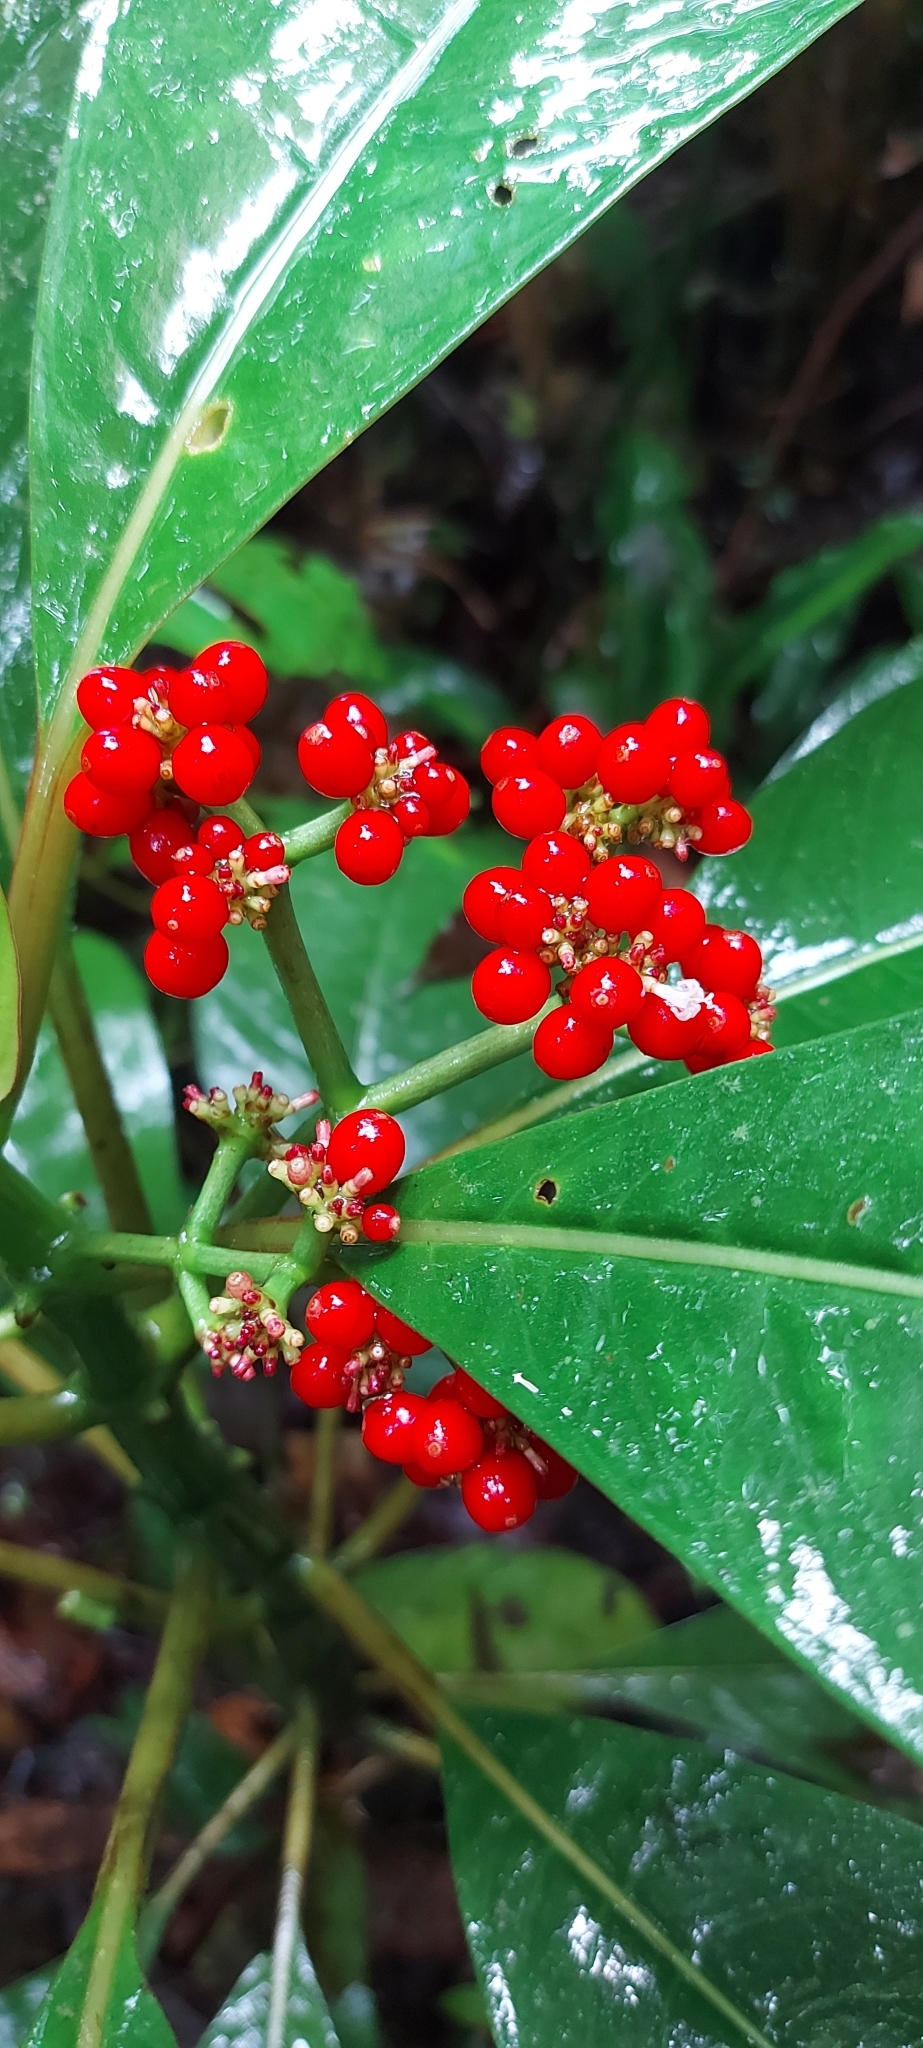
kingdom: Plantae
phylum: Tracheophyta
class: Magnoliopsida
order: Gentianales
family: Rubiaceae
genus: Notopleura
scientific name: Notopleura uliginosa
